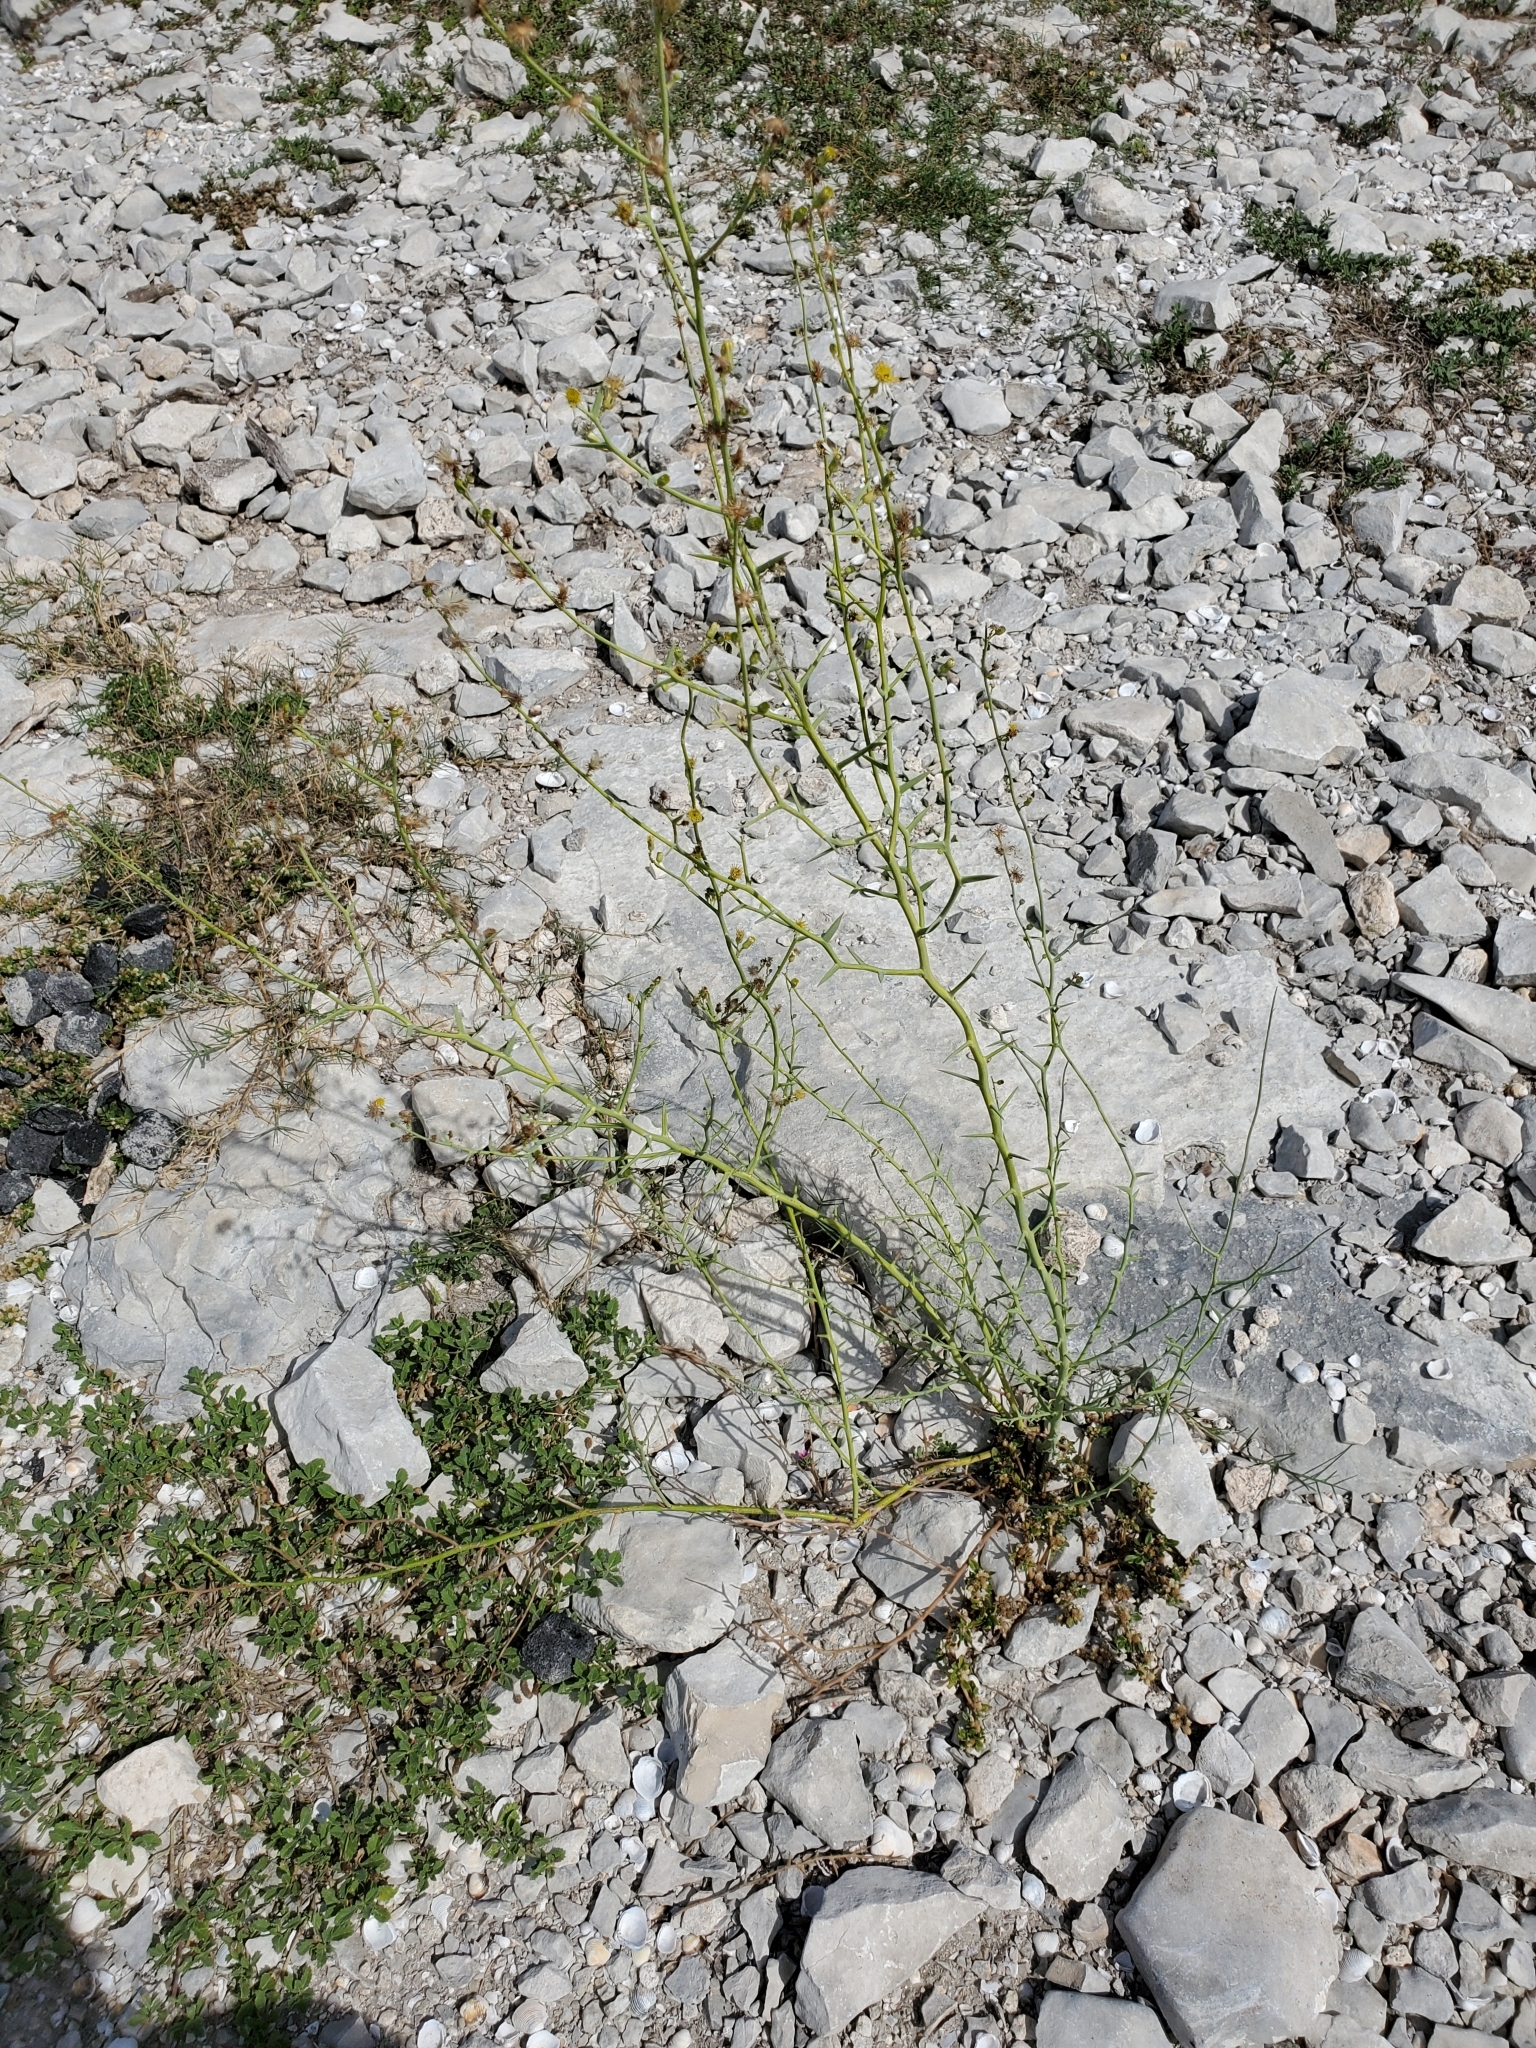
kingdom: Plantae
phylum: Tracheophyta
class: Magnoliopsida
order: Asterales
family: Asteraceae
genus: Chloracantha
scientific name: Chloracantha spinosa
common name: Mexican devilweed
